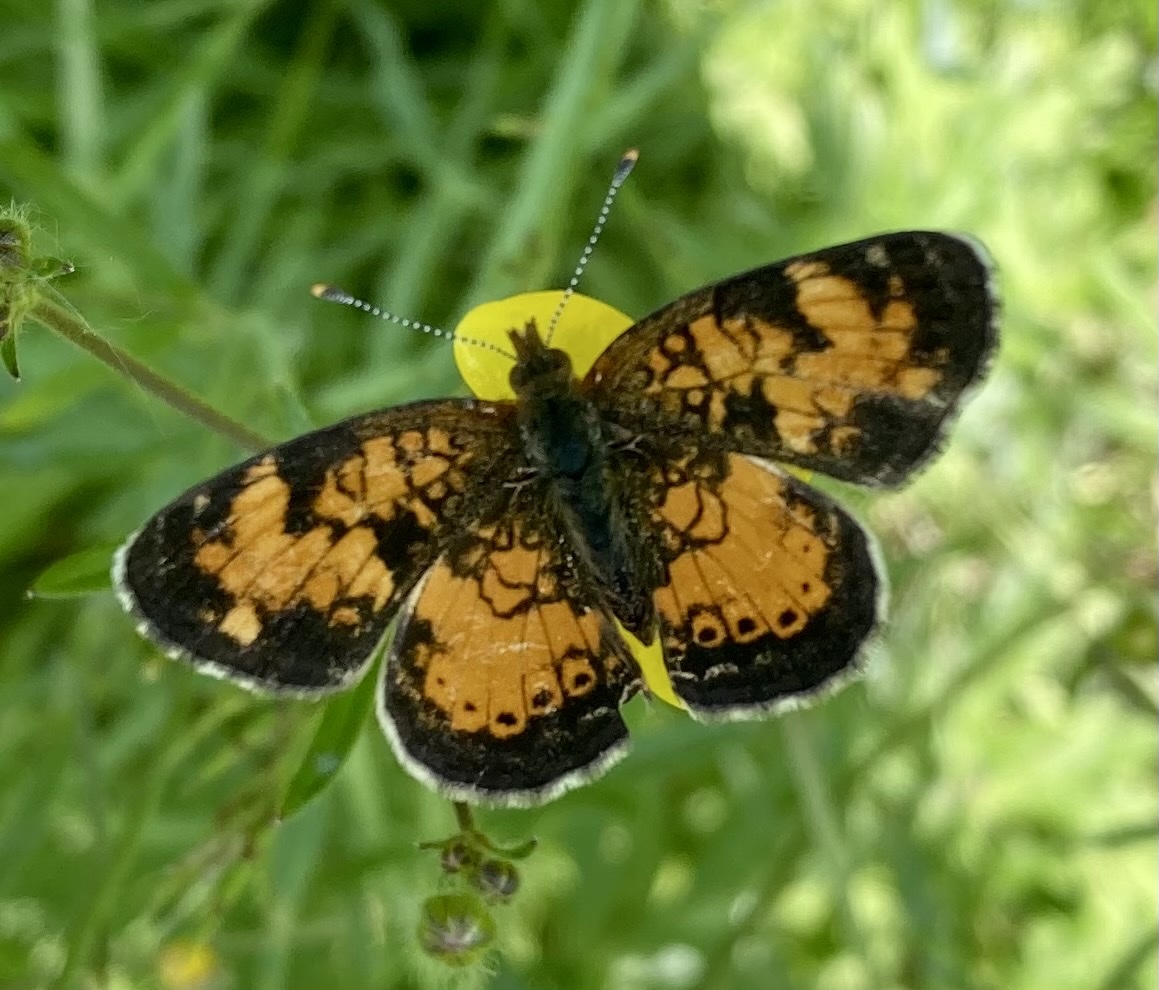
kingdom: Animalia
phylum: Arthropoda
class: Insecta
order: Lepidoptera
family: Nymphalidae
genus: Phyciodes
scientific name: Phyciodes tharos
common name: Pearl crescent
